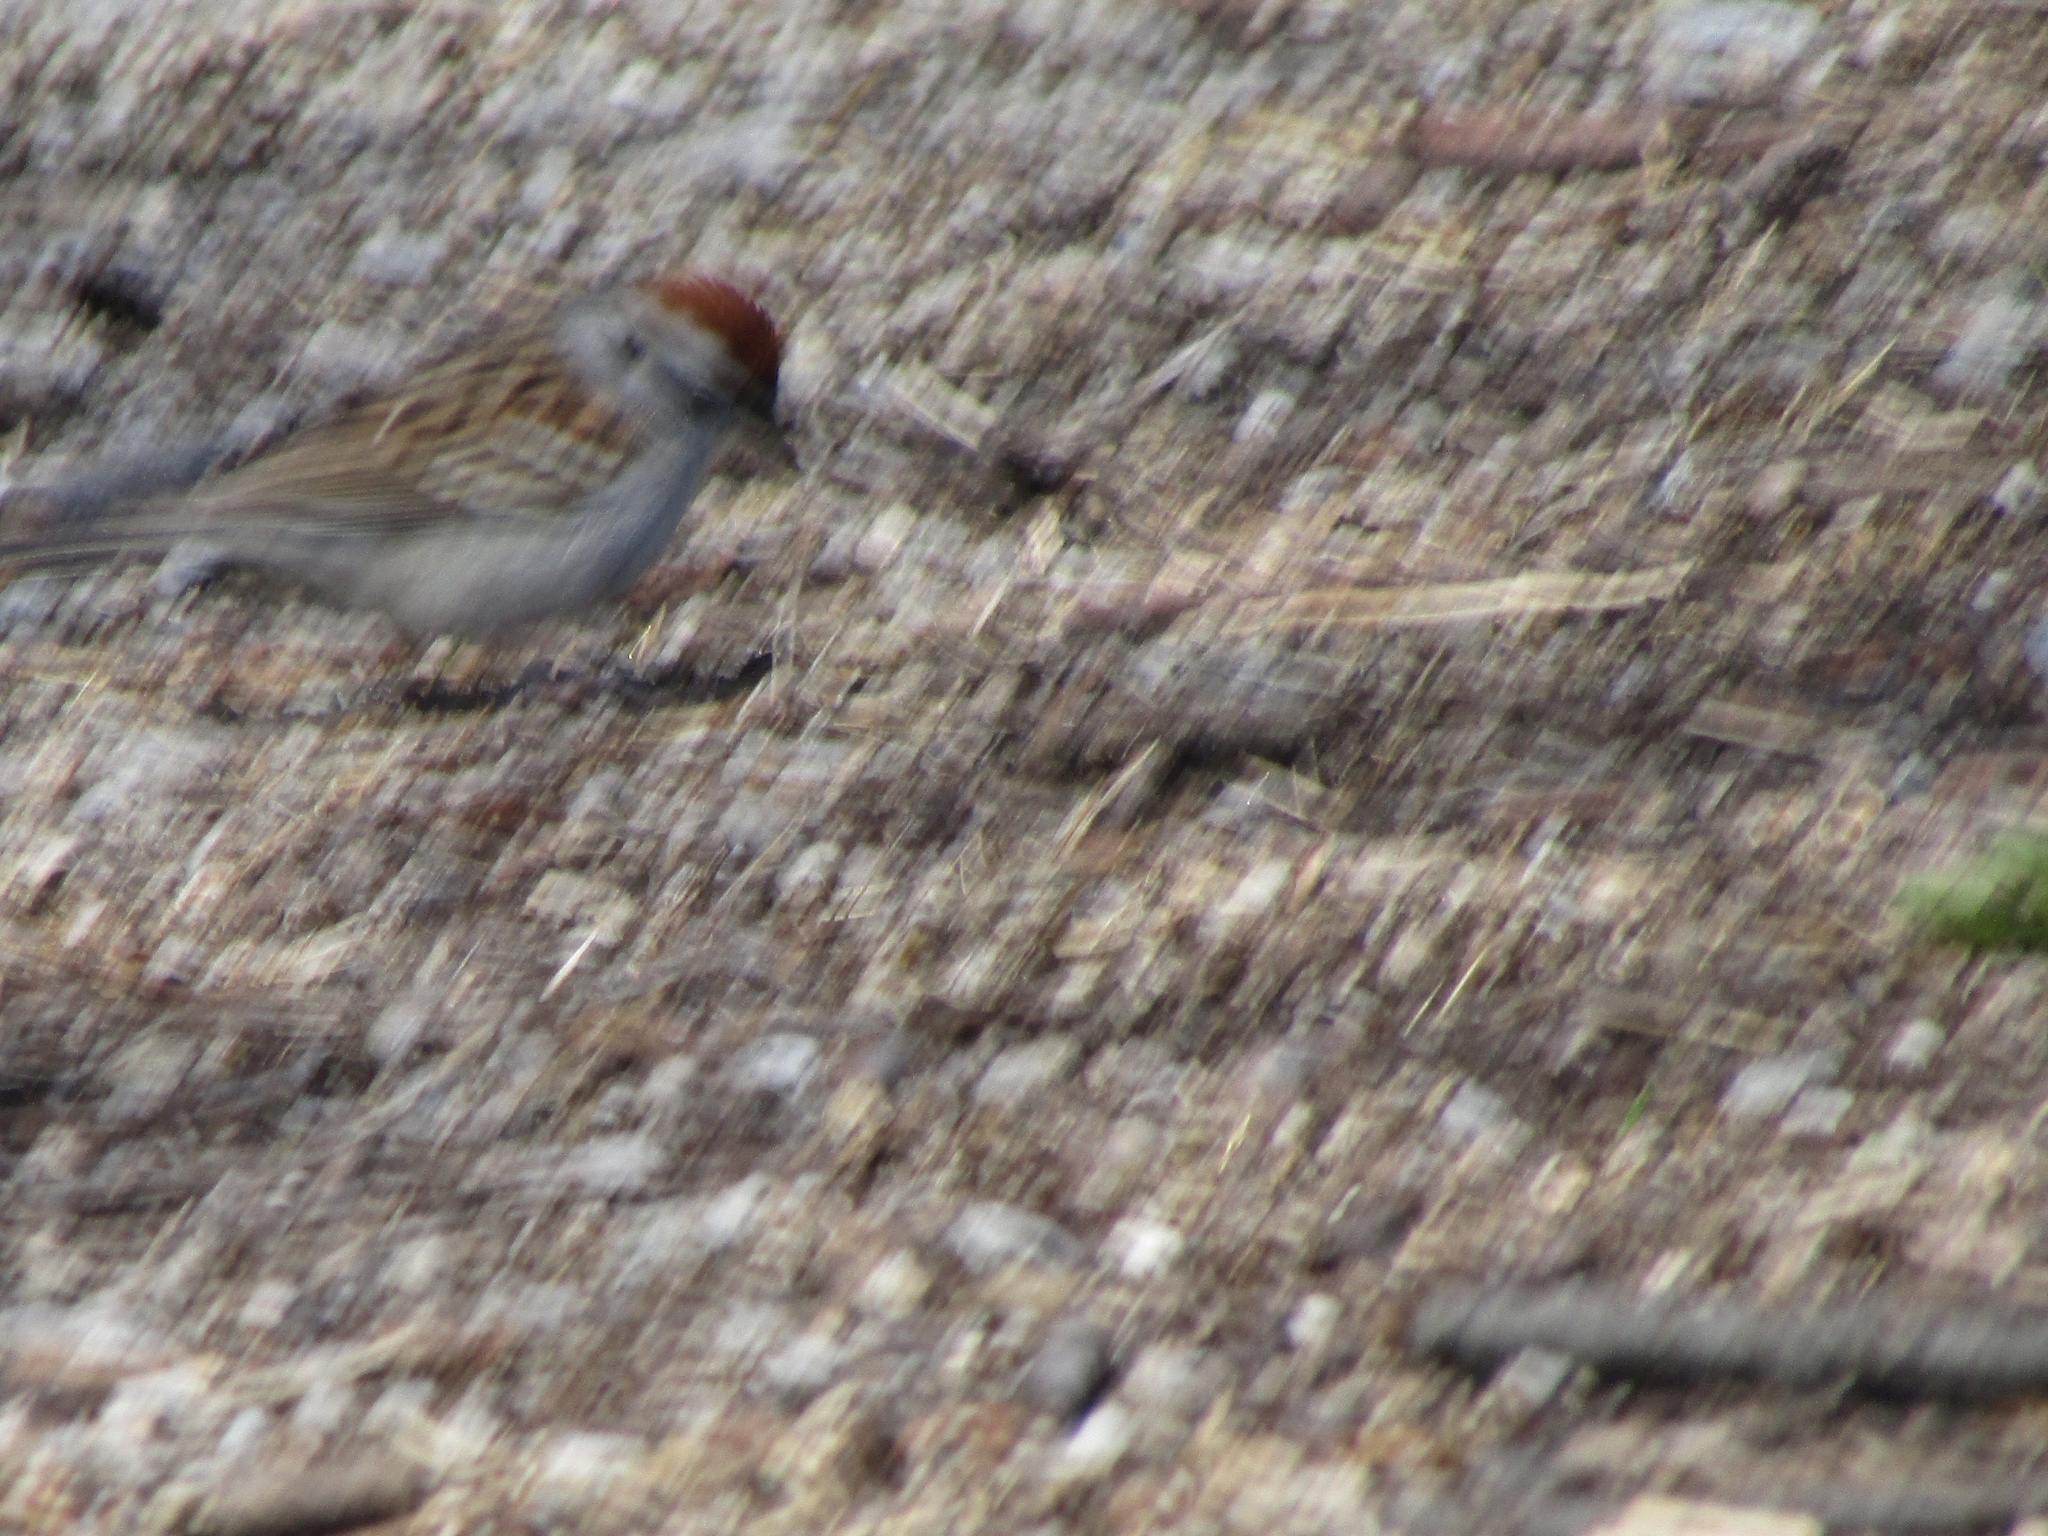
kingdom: Animalia
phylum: Chordata
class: Aves
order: Passeriformes
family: Passerellidae
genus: Spizella
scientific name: Spizella passerina
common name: Chipping sparrow
